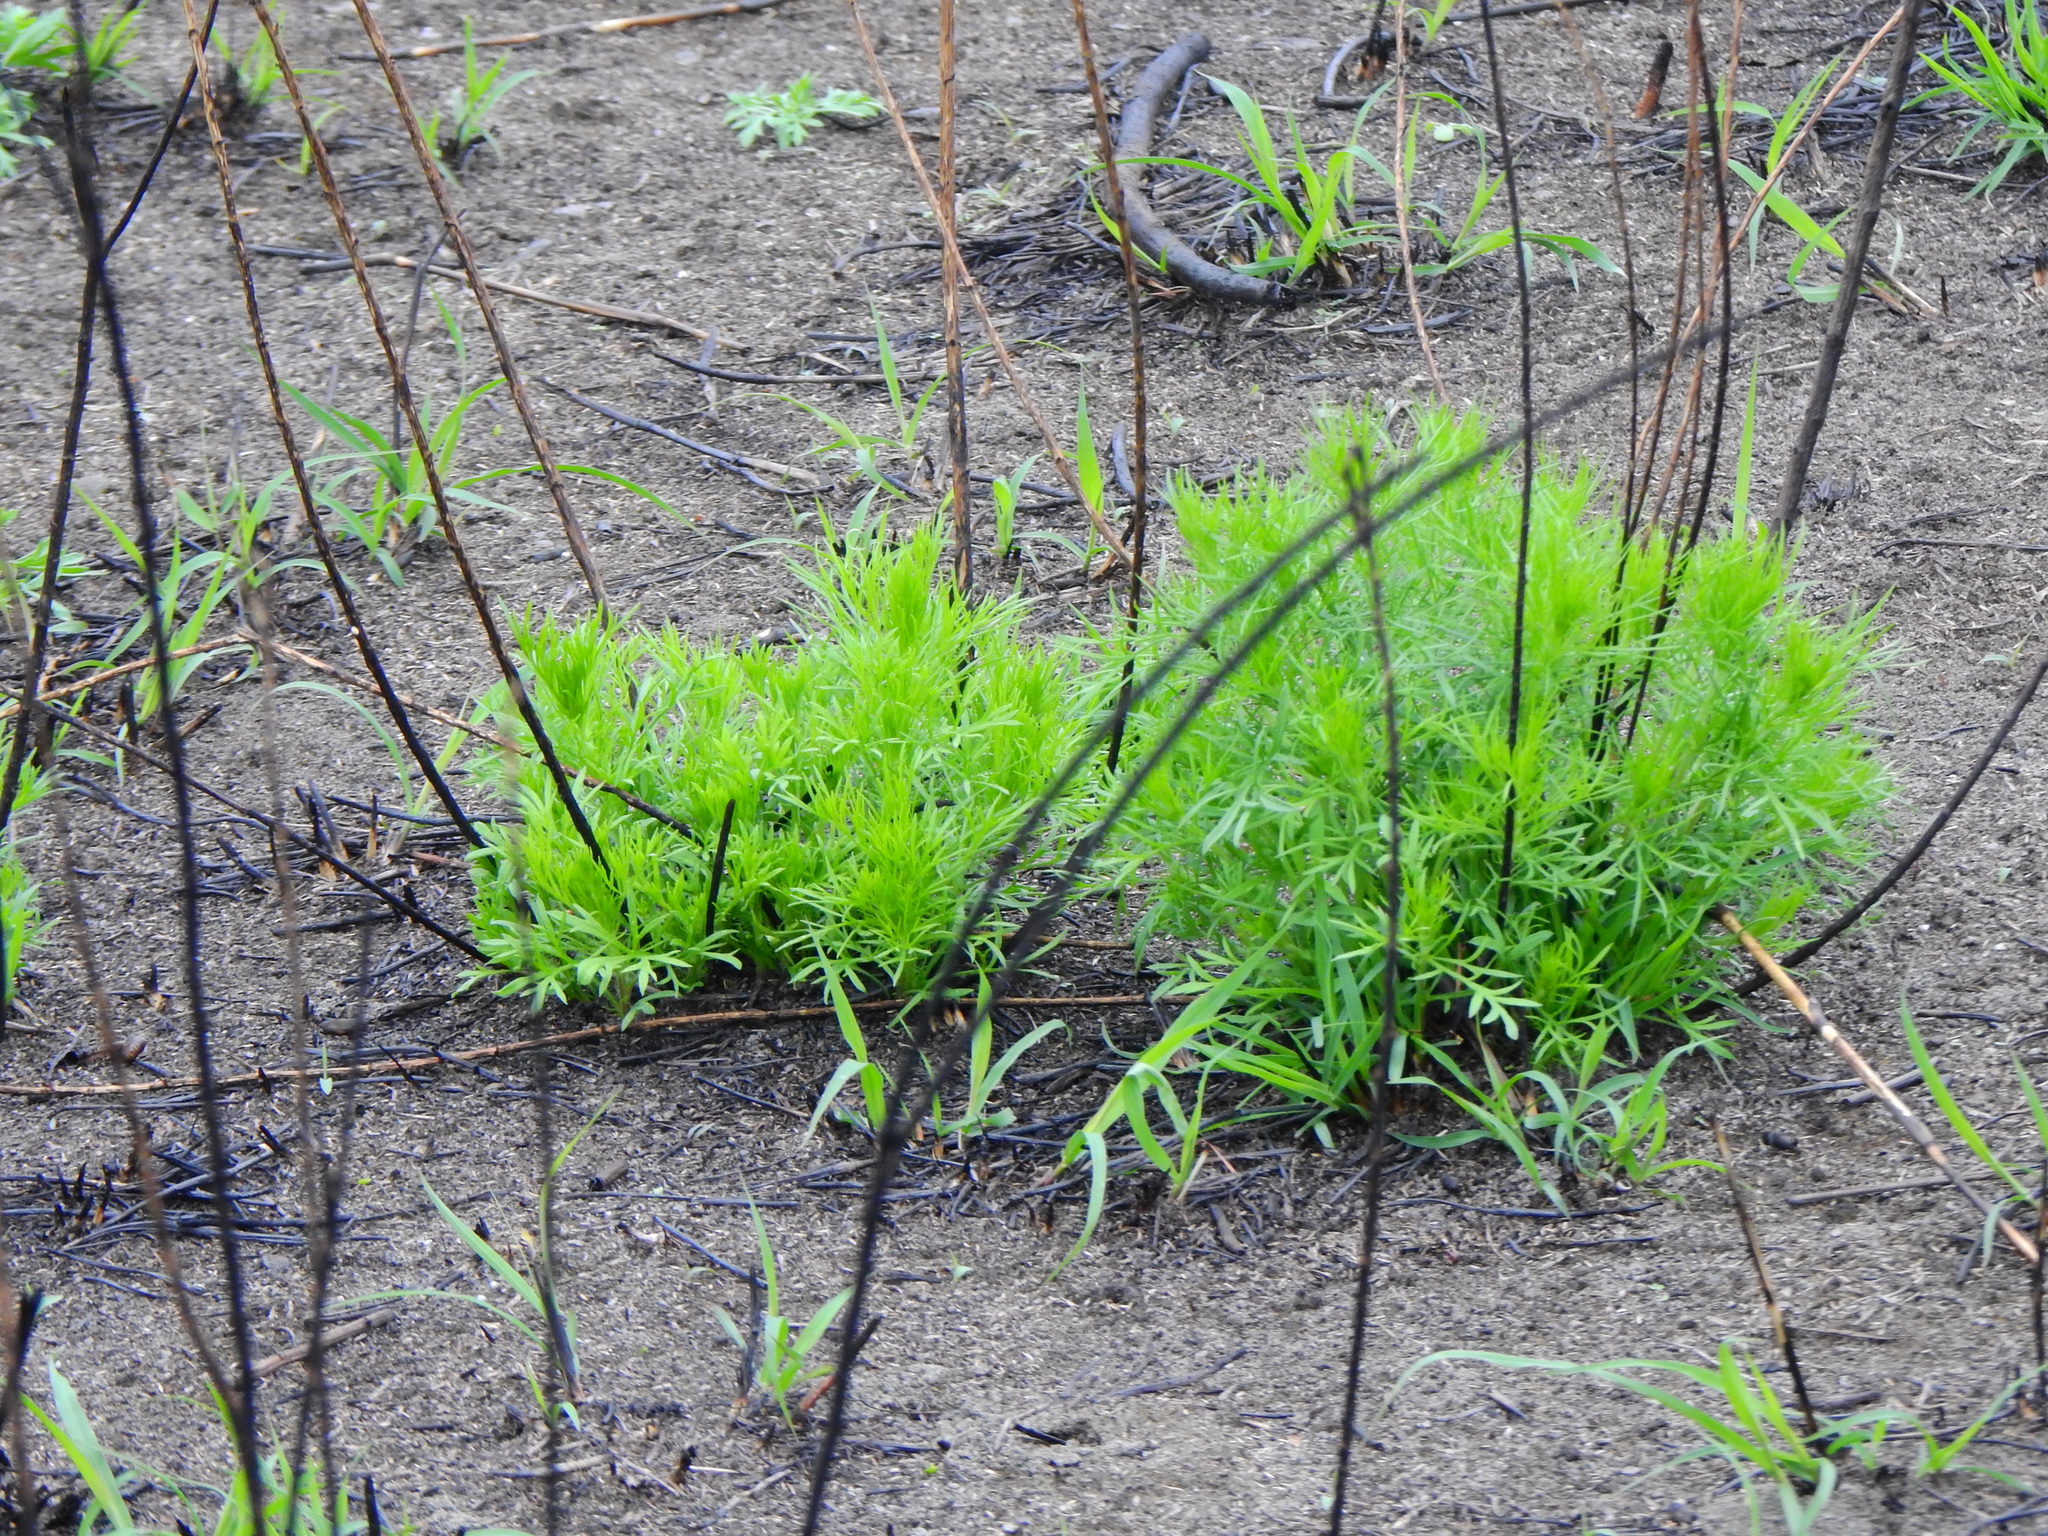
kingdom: Plantae
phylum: Tracheophyta
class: Magnoliopsida
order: Asterales
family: Asteraceae
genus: Artemisia
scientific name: Artemisia capillaris
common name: Yin-chen wormwood
